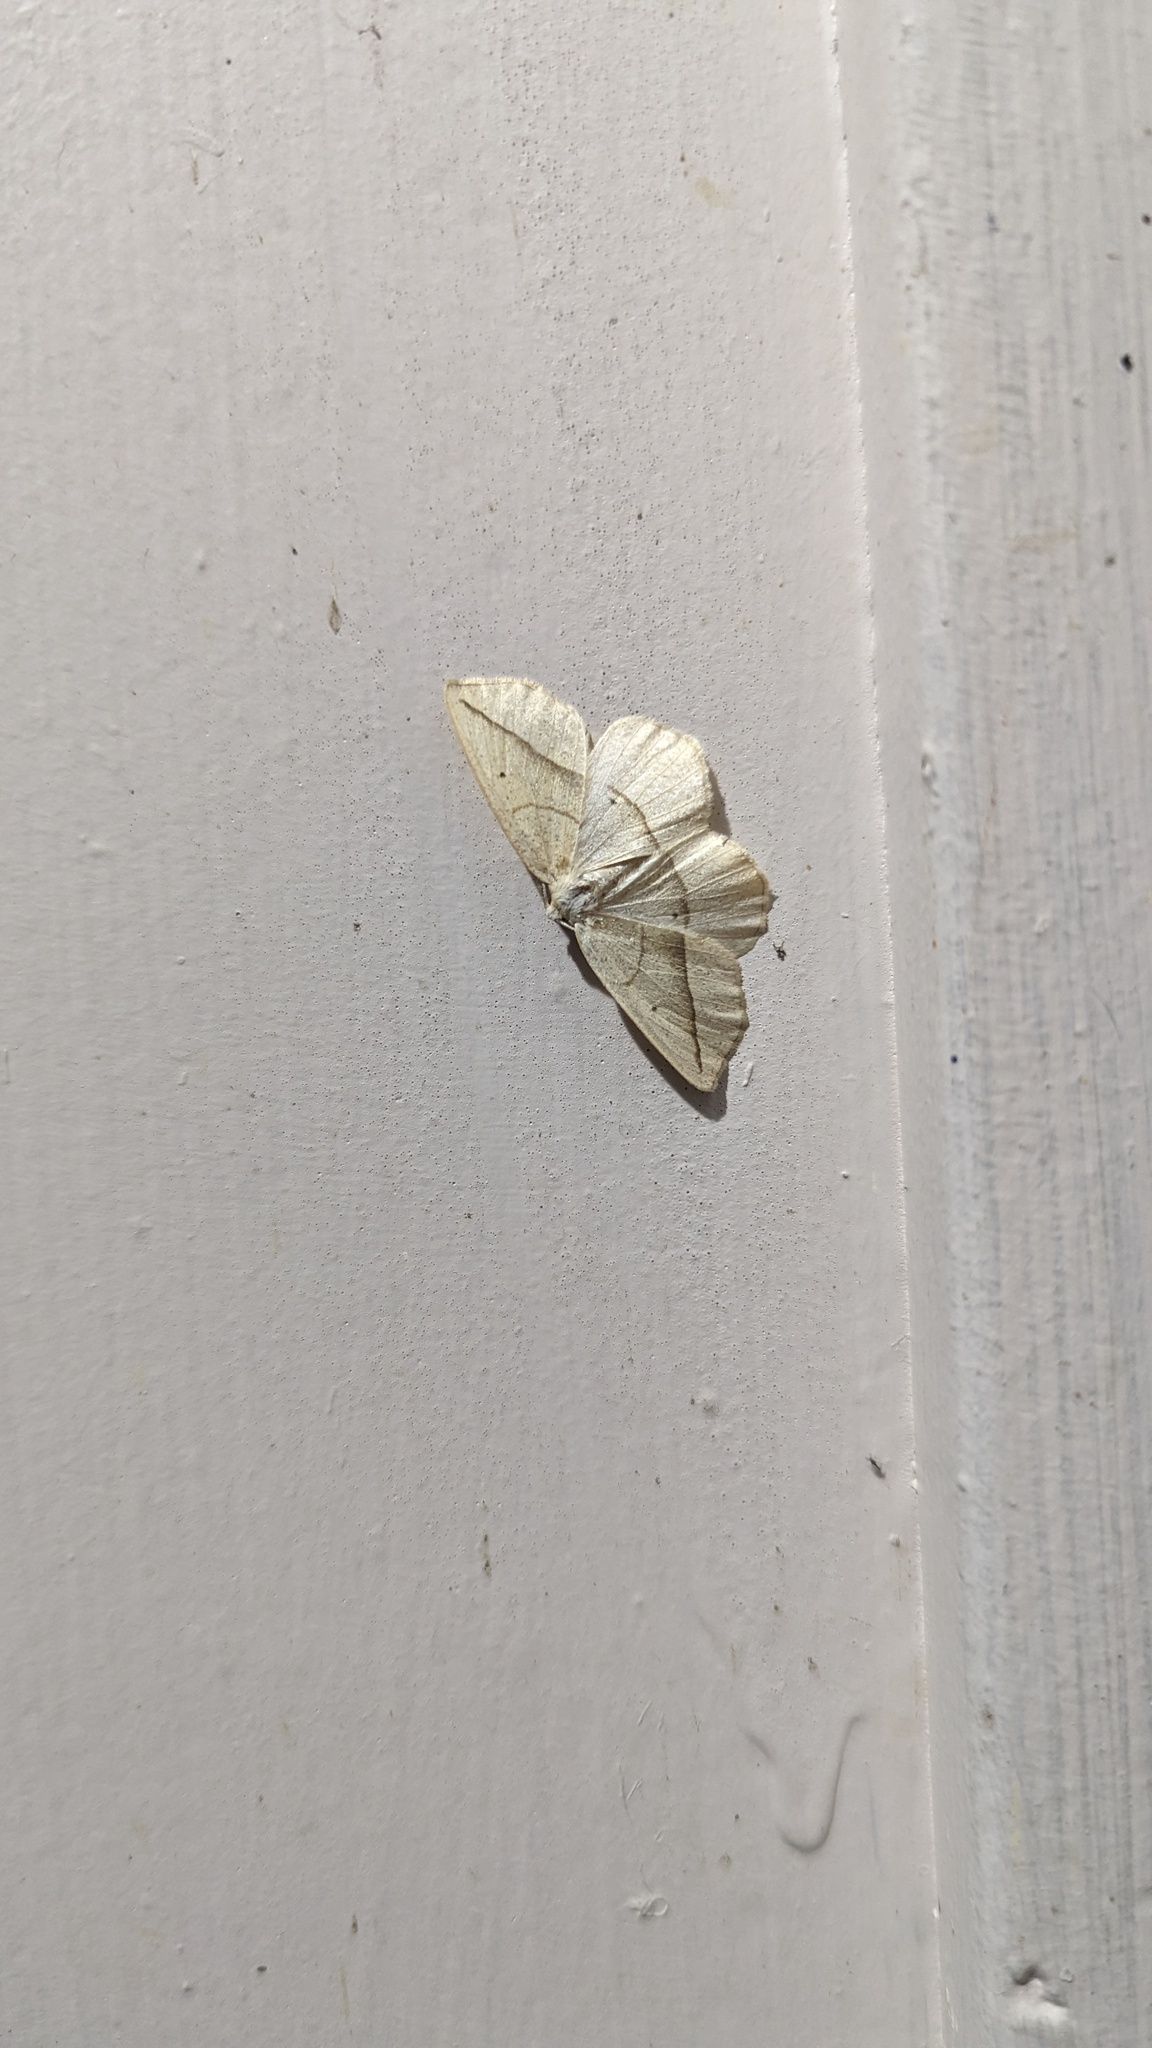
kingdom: Animalia
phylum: Arthropoda
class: Insecta
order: Lepidoptera
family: Geometridae
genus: Eusarca
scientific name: Eusarca confusaria
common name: Confused eusarca
